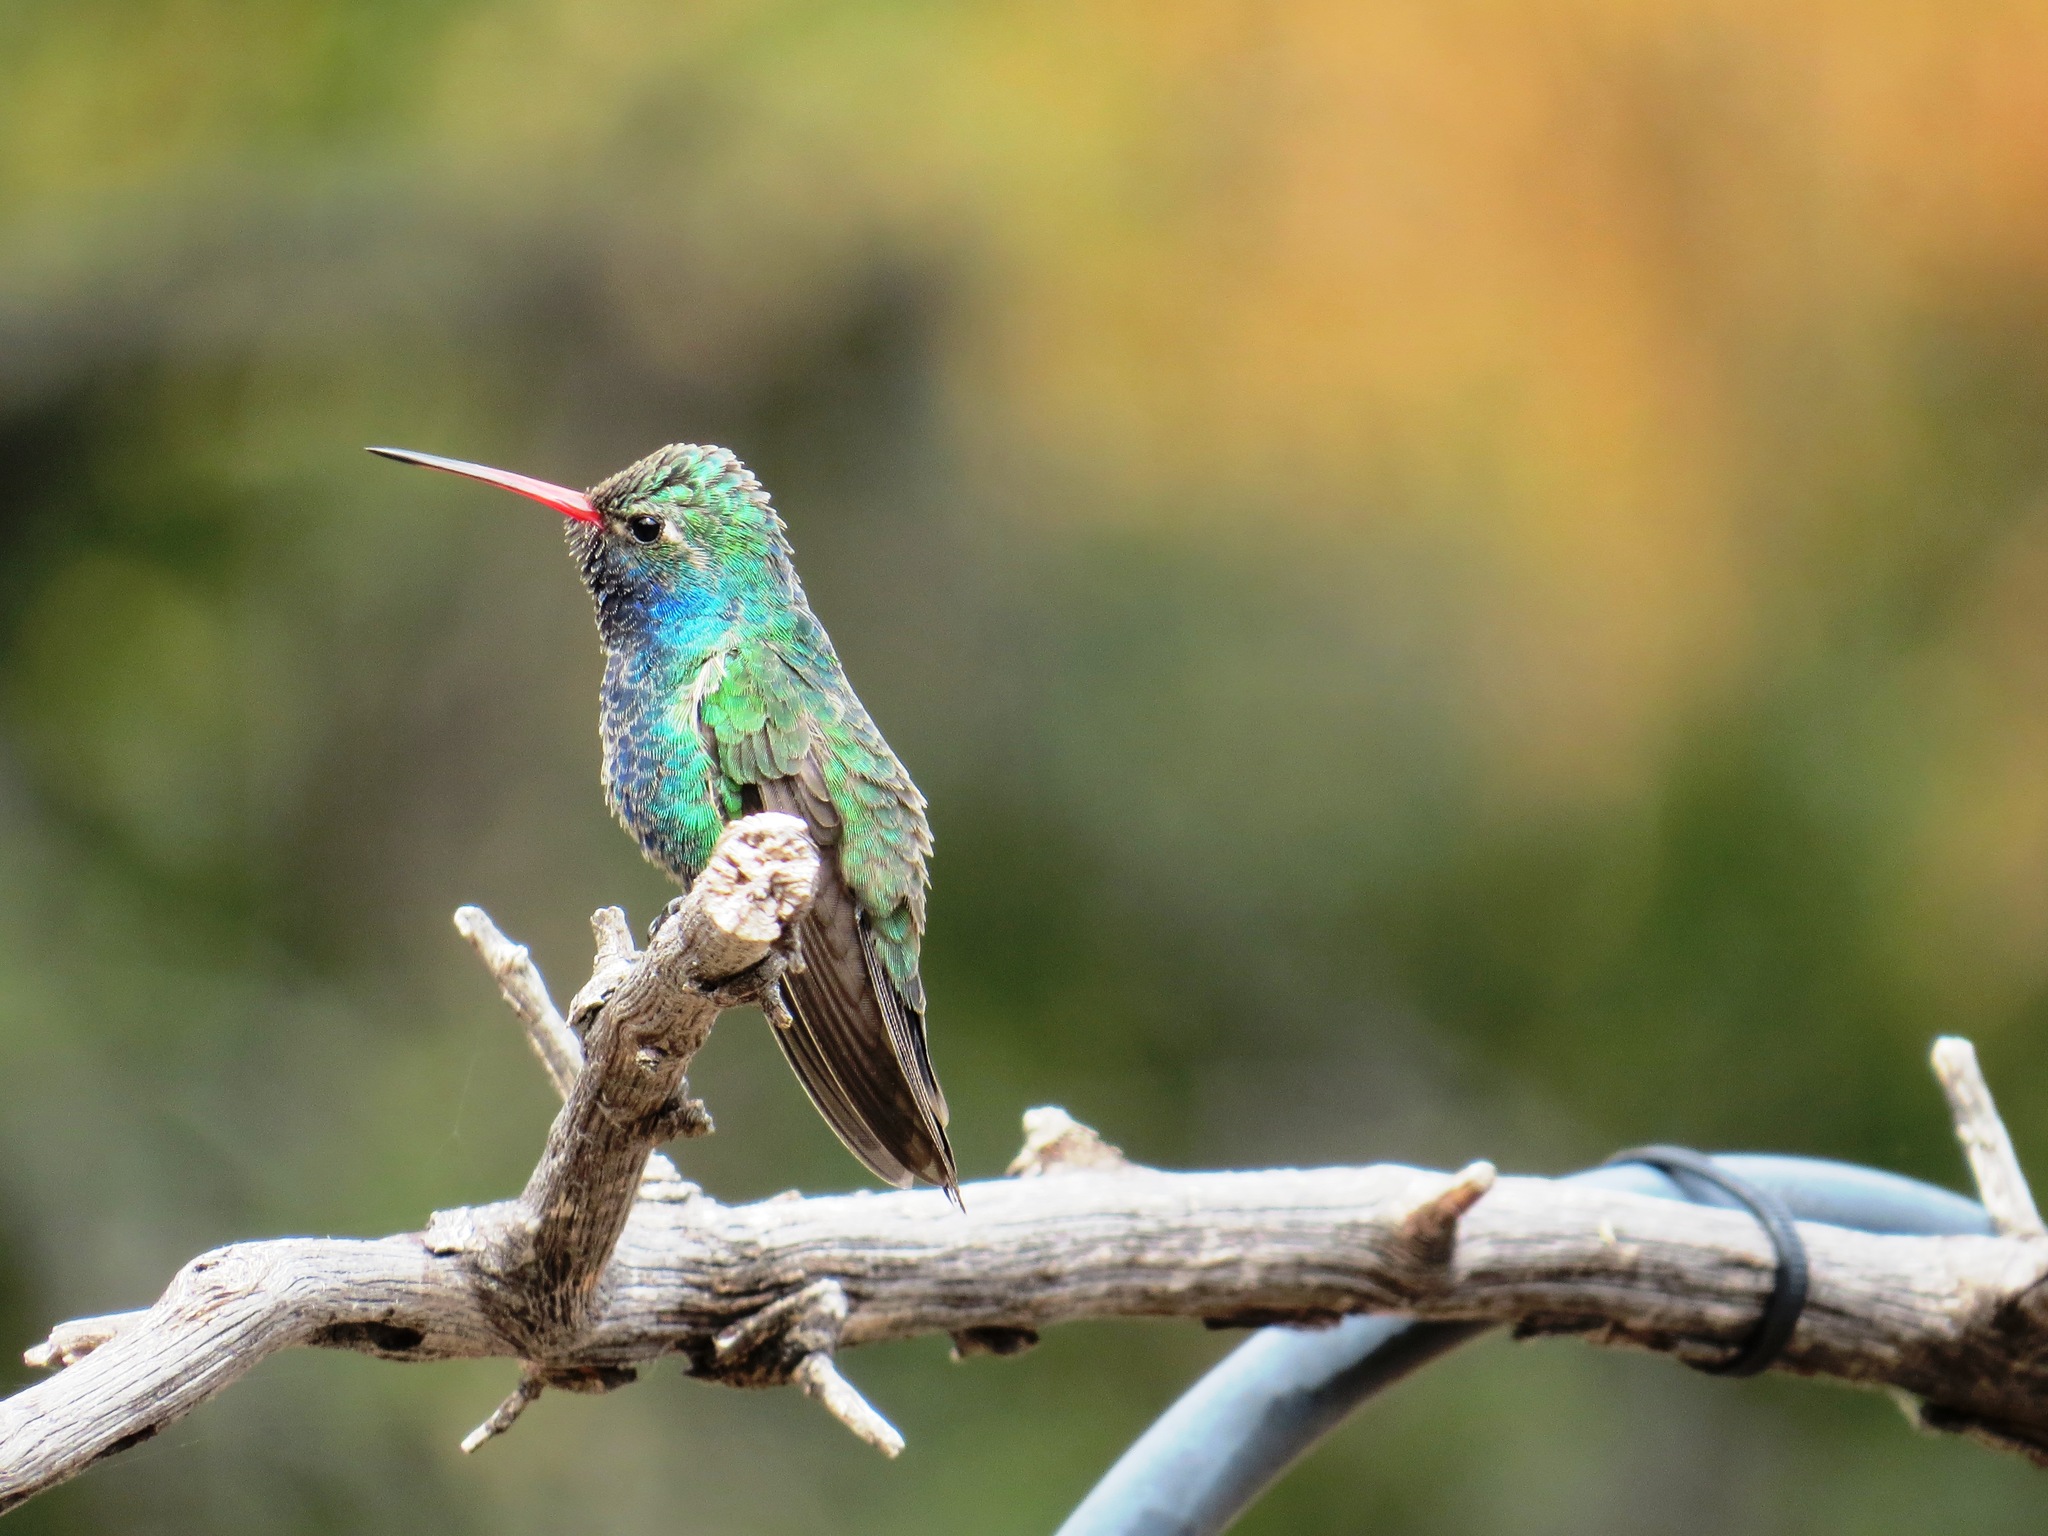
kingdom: Animalia
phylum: Chordata
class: Aves
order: Apodiformes
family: Trochilidae
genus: Cynanthus
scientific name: Cynanthus latirostris
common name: Broad-billed hummingbird
